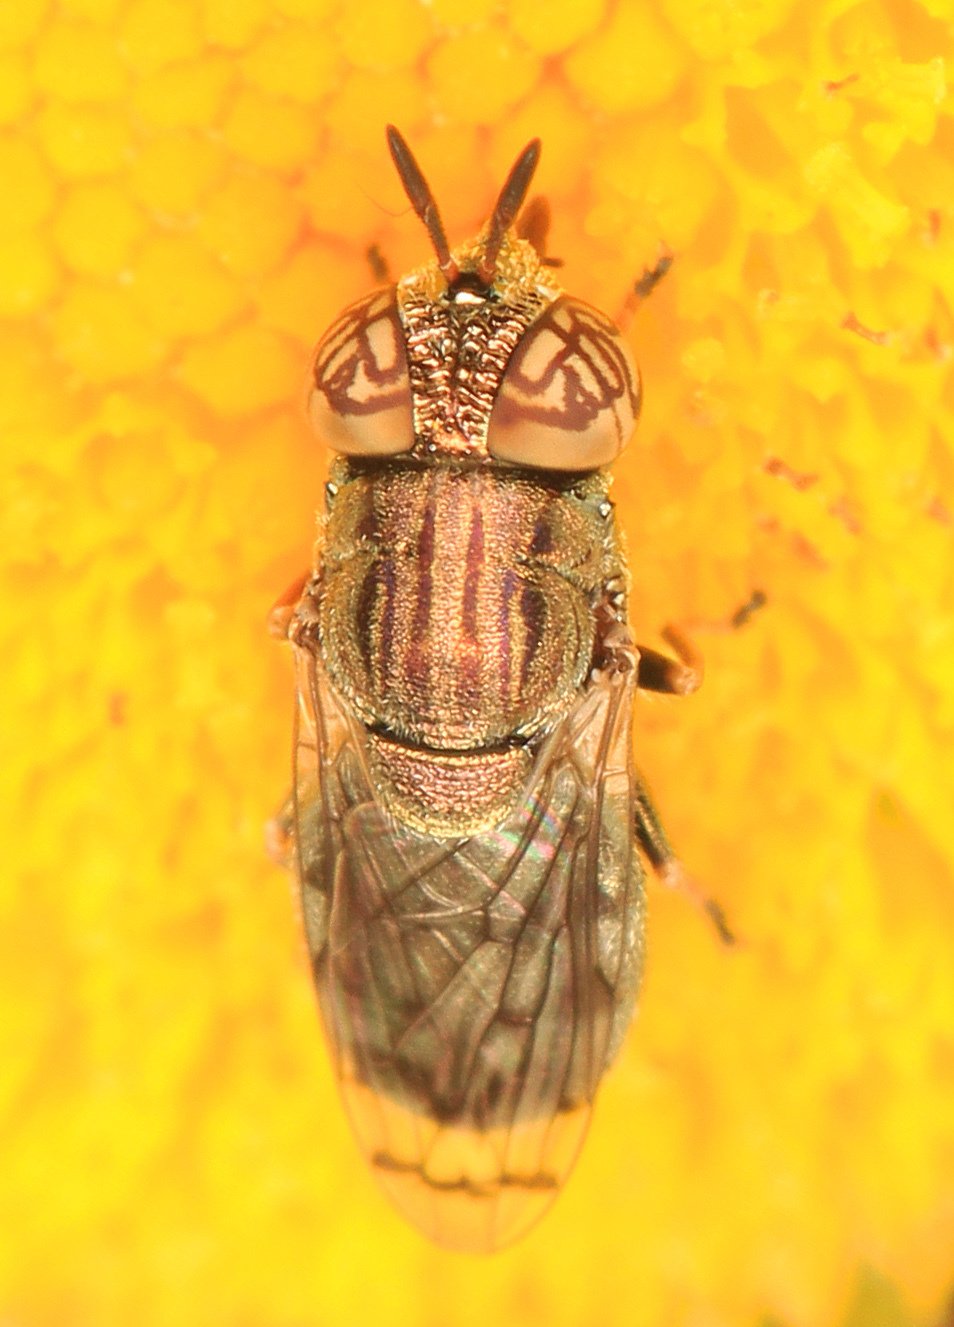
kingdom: Animalia
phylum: Arthropoda
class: Insecta
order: Diptera
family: Syrphidae
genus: Orthonevra
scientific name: Orthonevra nitida
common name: Wavy mucksucker
